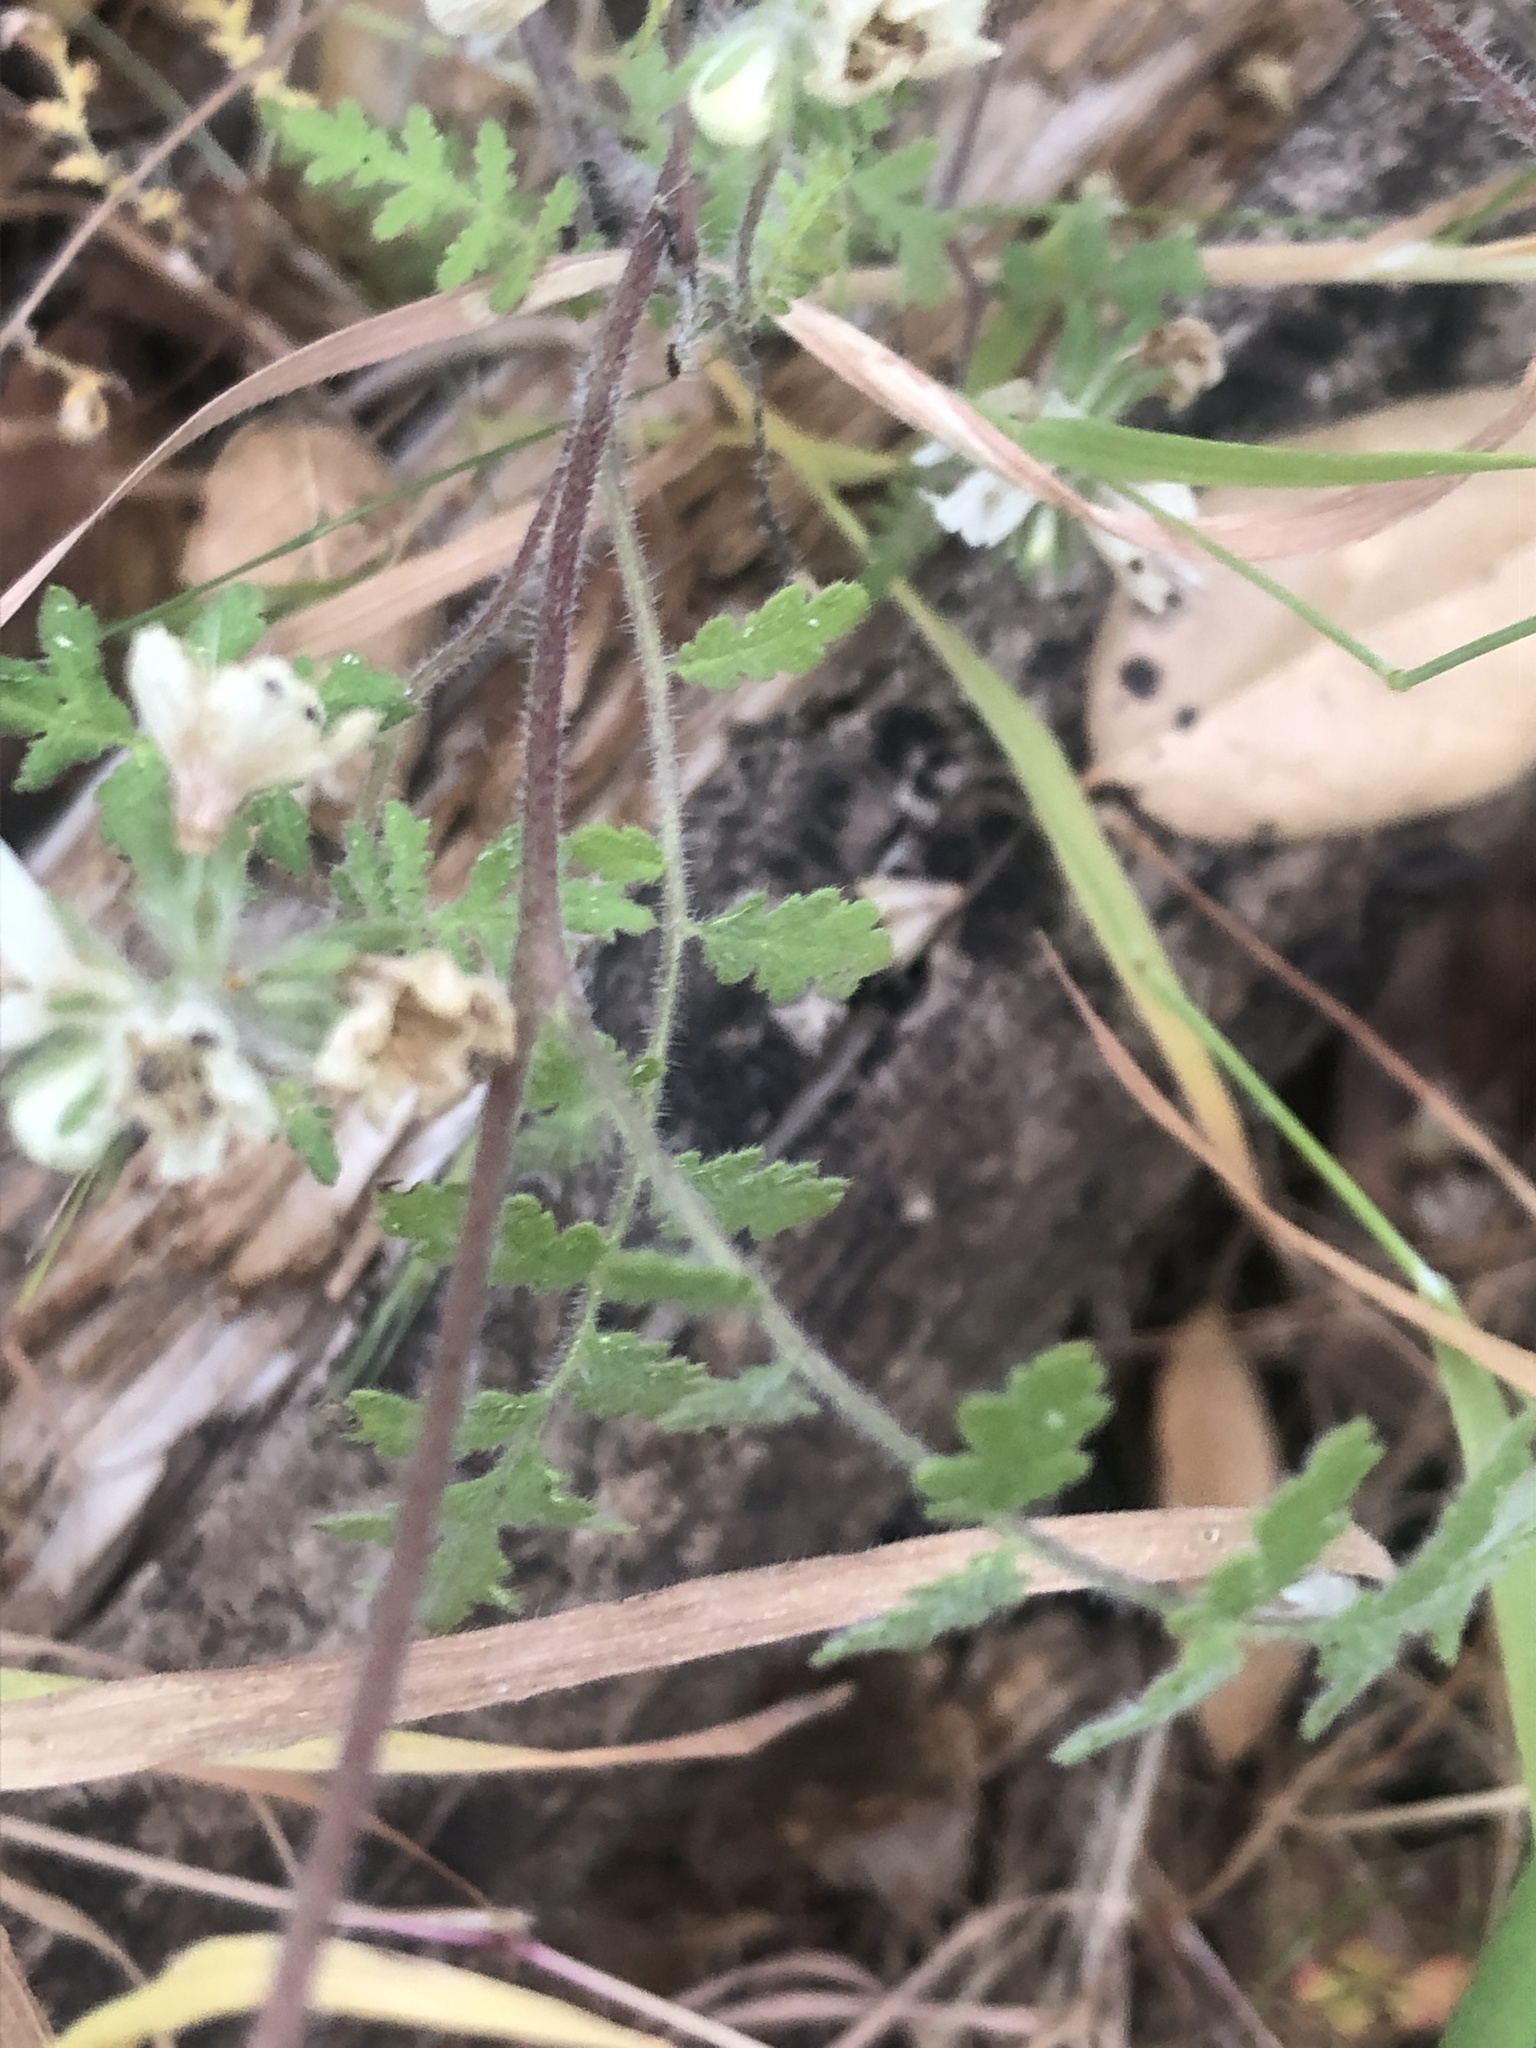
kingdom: Plantae
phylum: Tracheophyta
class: Magnoliopsida
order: Boraginales
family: Hydrophyllaceae
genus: Phacelia
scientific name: Phacelia distans
